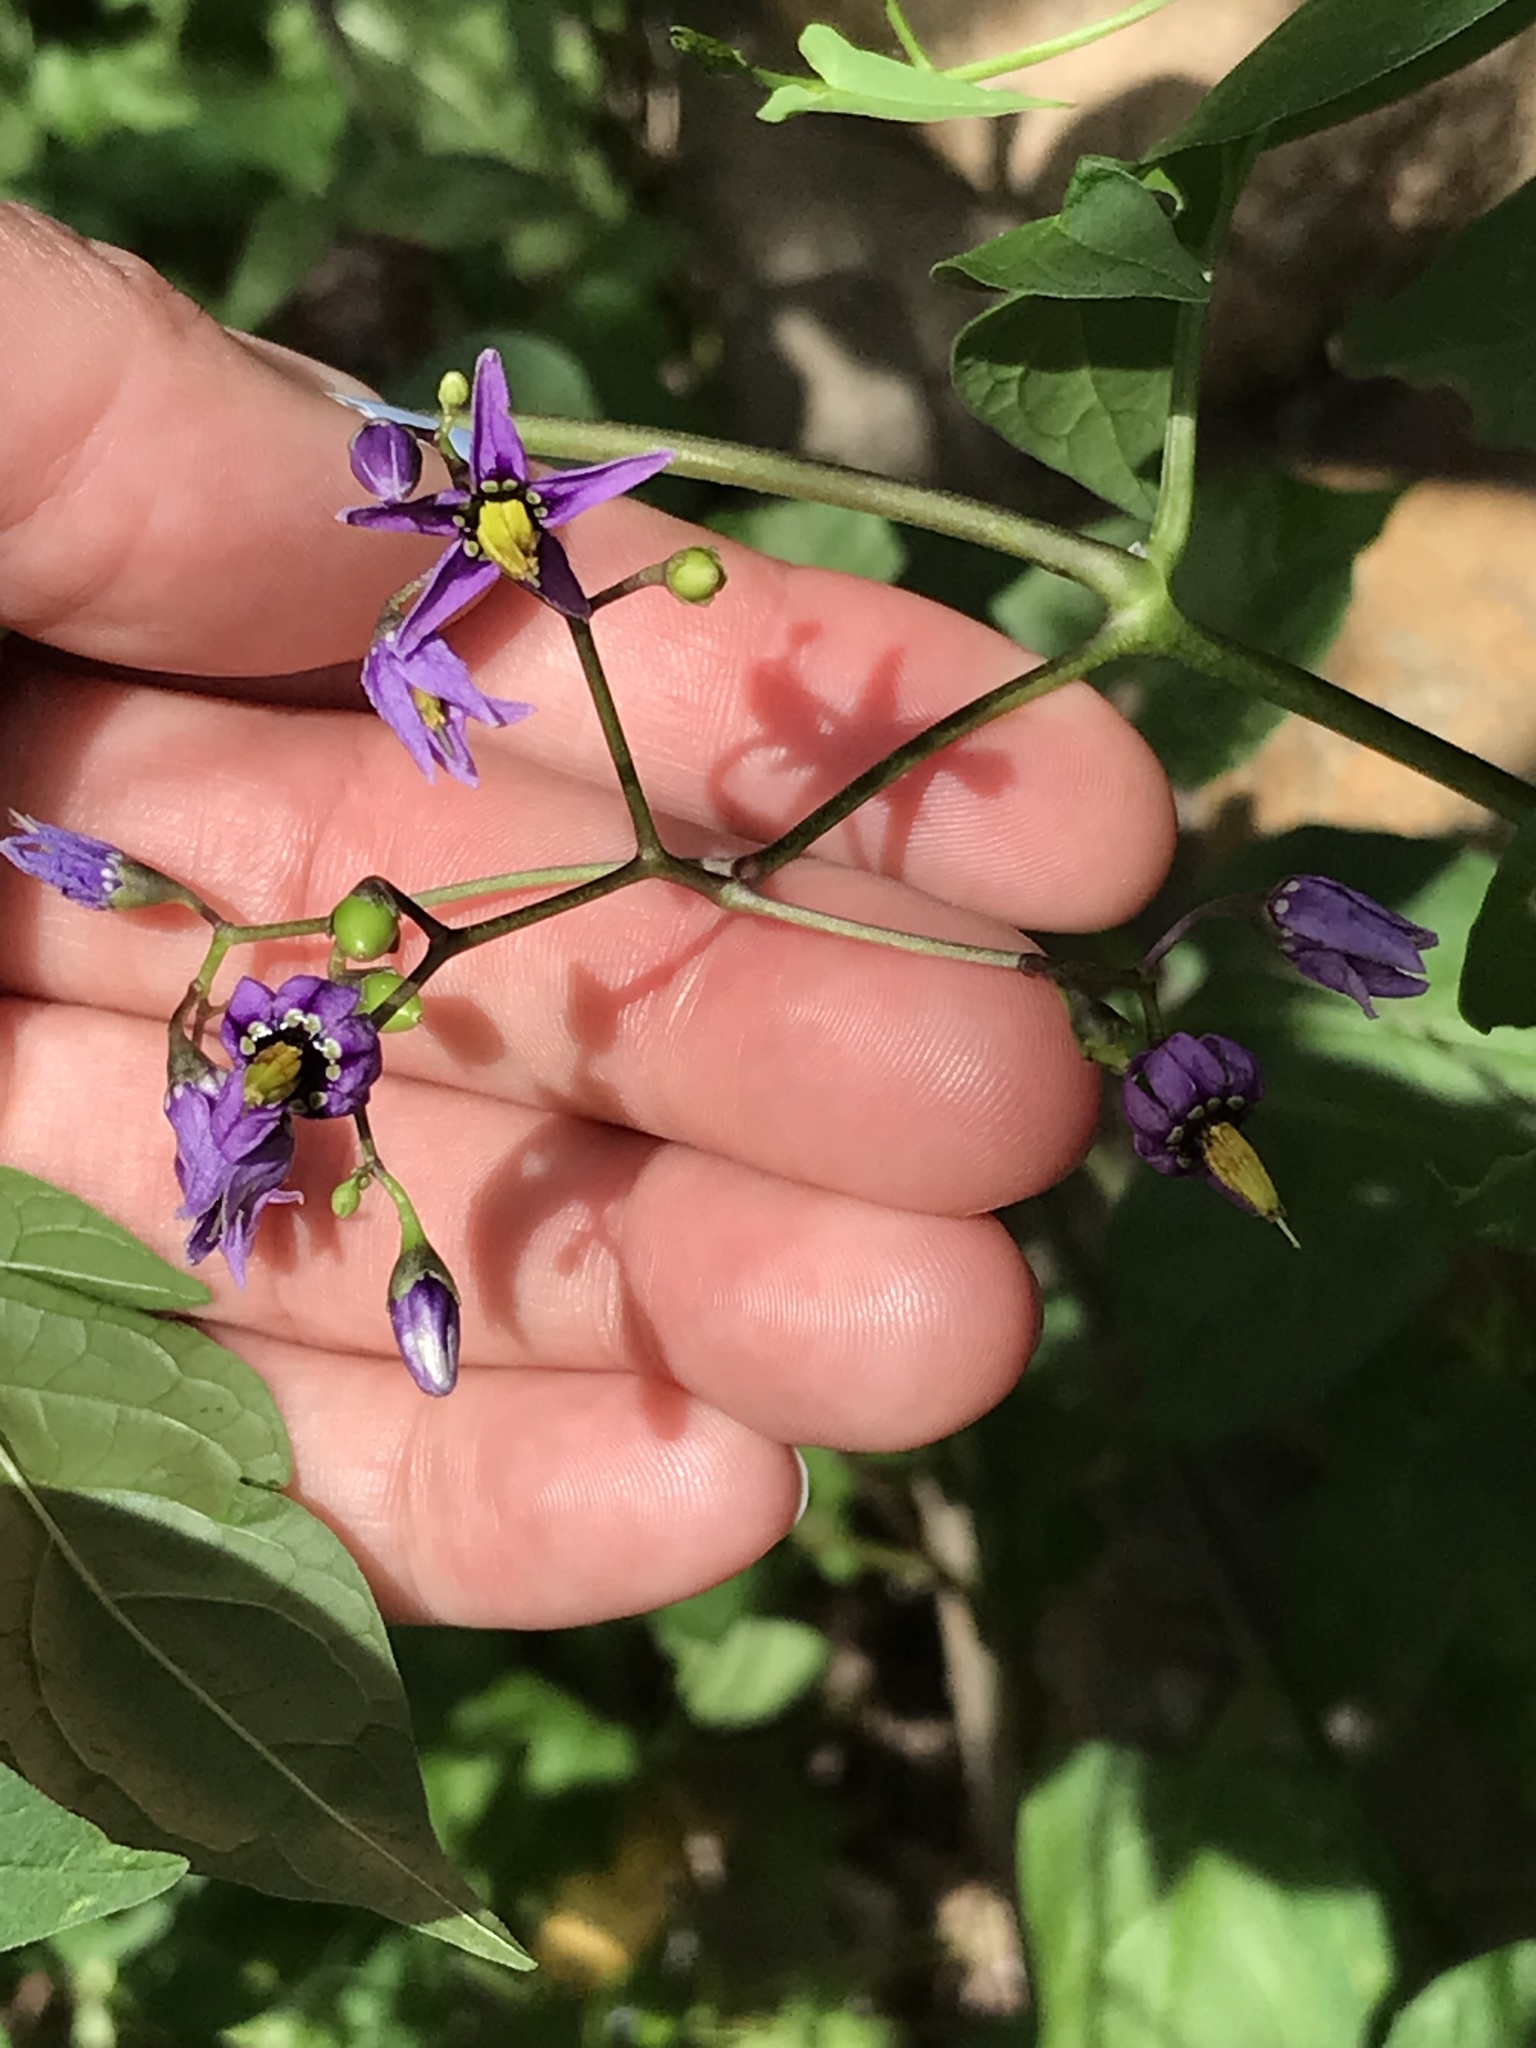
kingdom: Plantae
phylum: Tracheophyta
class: Magnoliopsida
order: Solanales
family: Solanaceae
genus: Solanum
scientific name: Solanum dulcamara
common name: Climbing nightshade
